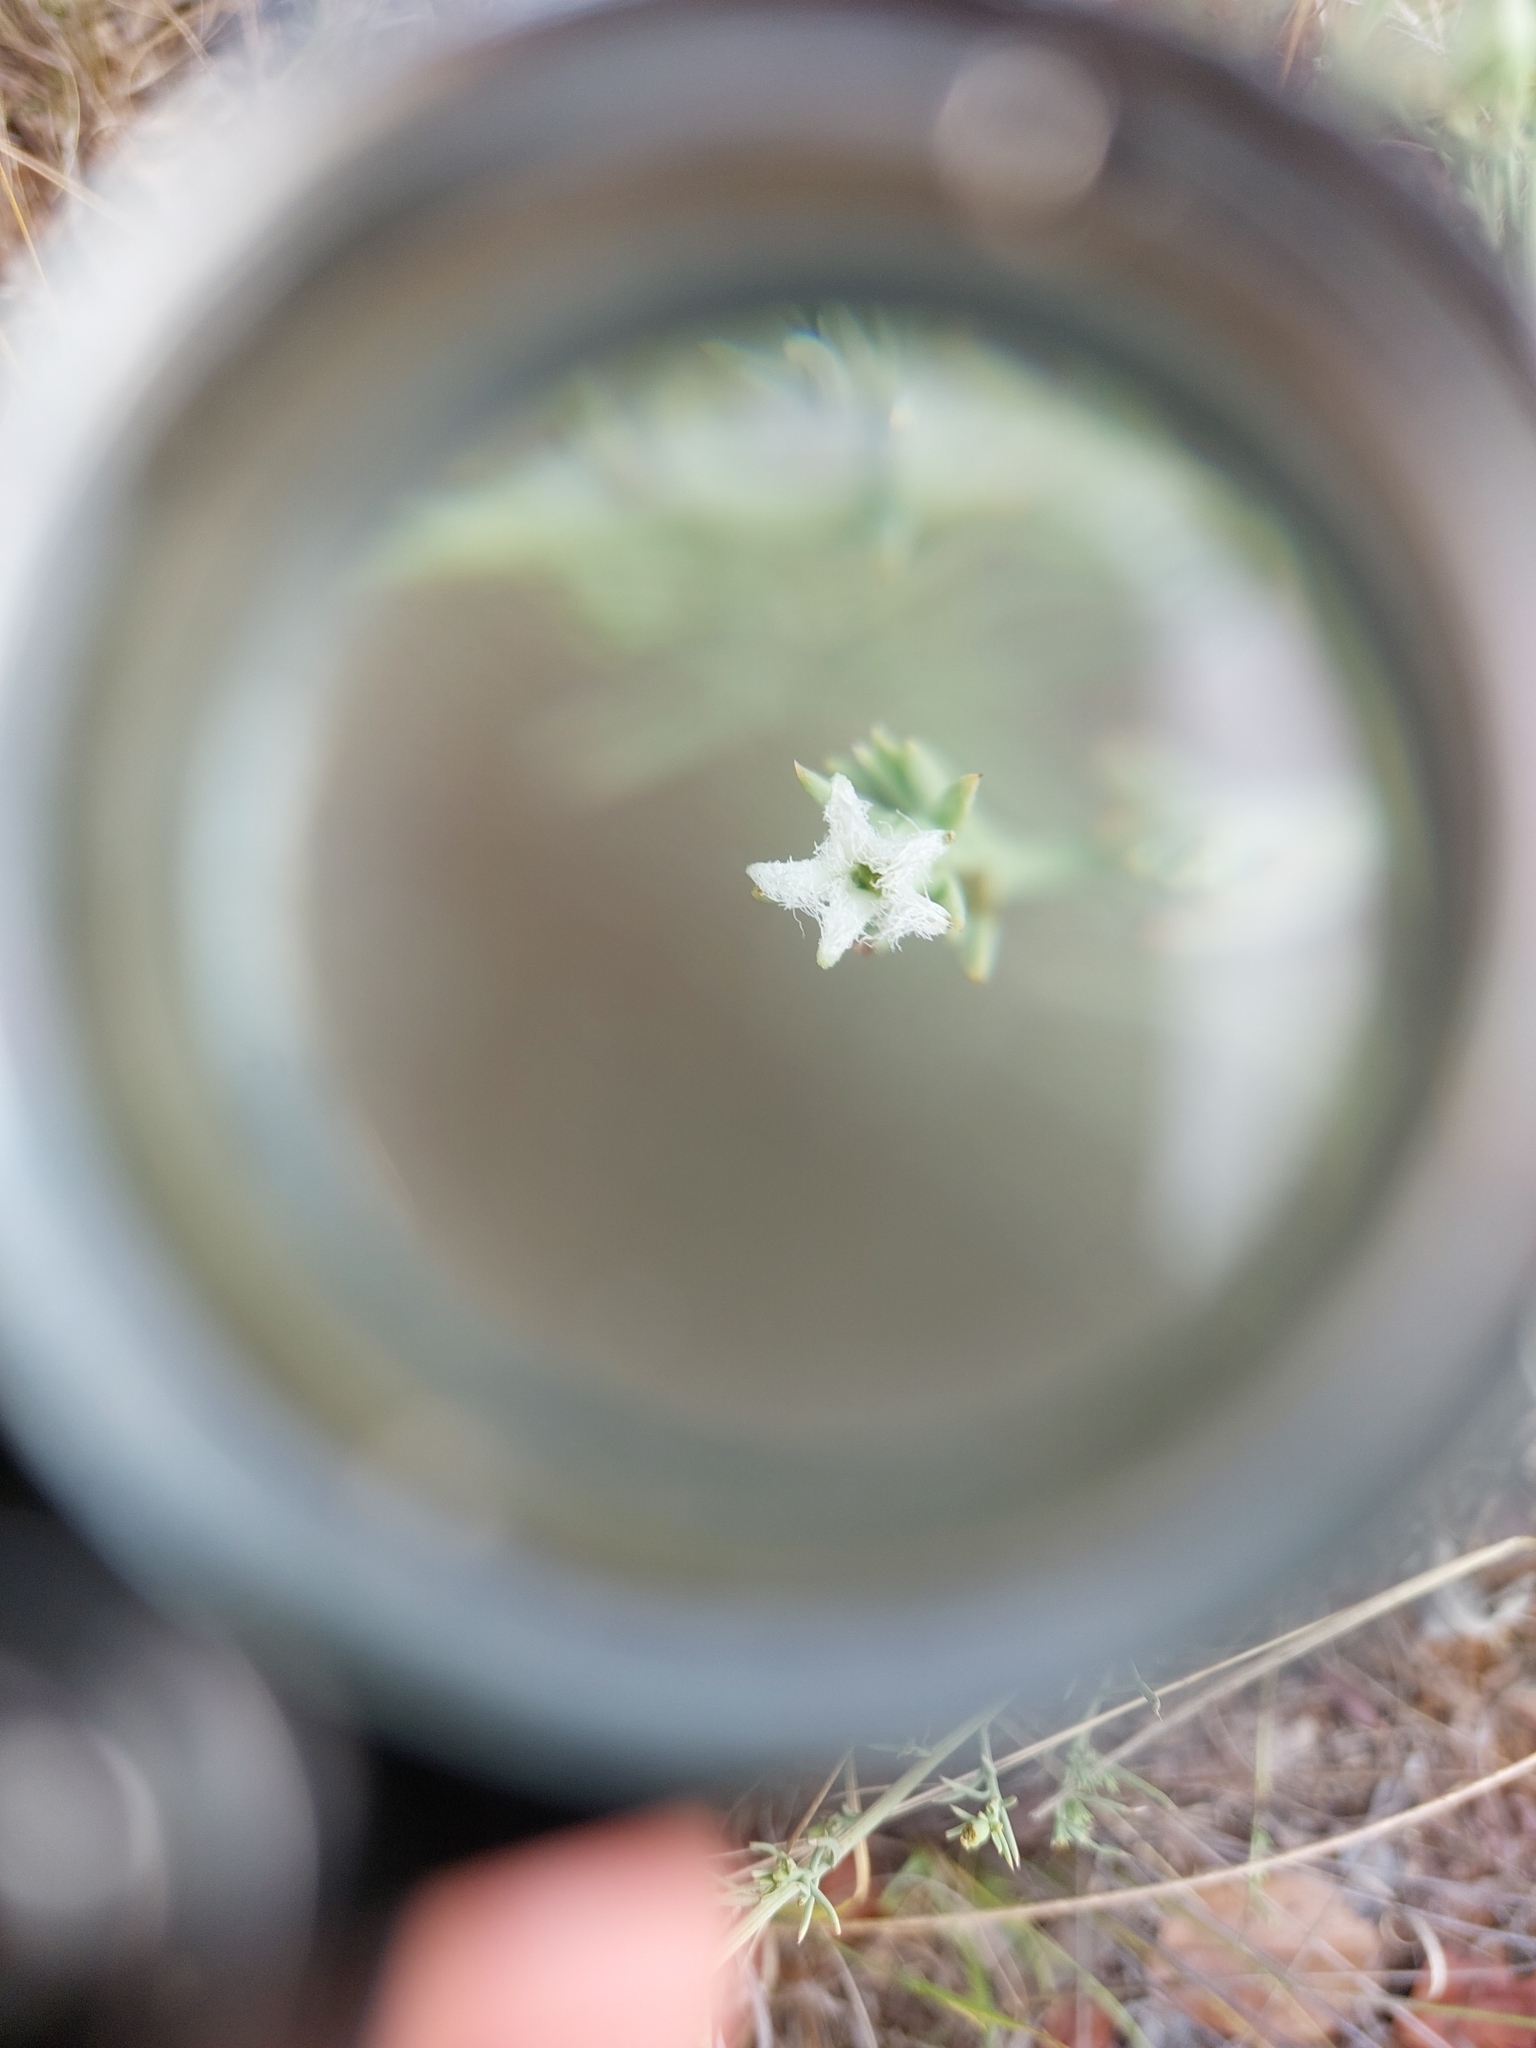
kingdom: Plantae
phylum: Tracheophyta
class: Magnoliopsida
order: Santalales
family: Thesiaceae
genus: Thesium
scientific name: Thesium celatum
